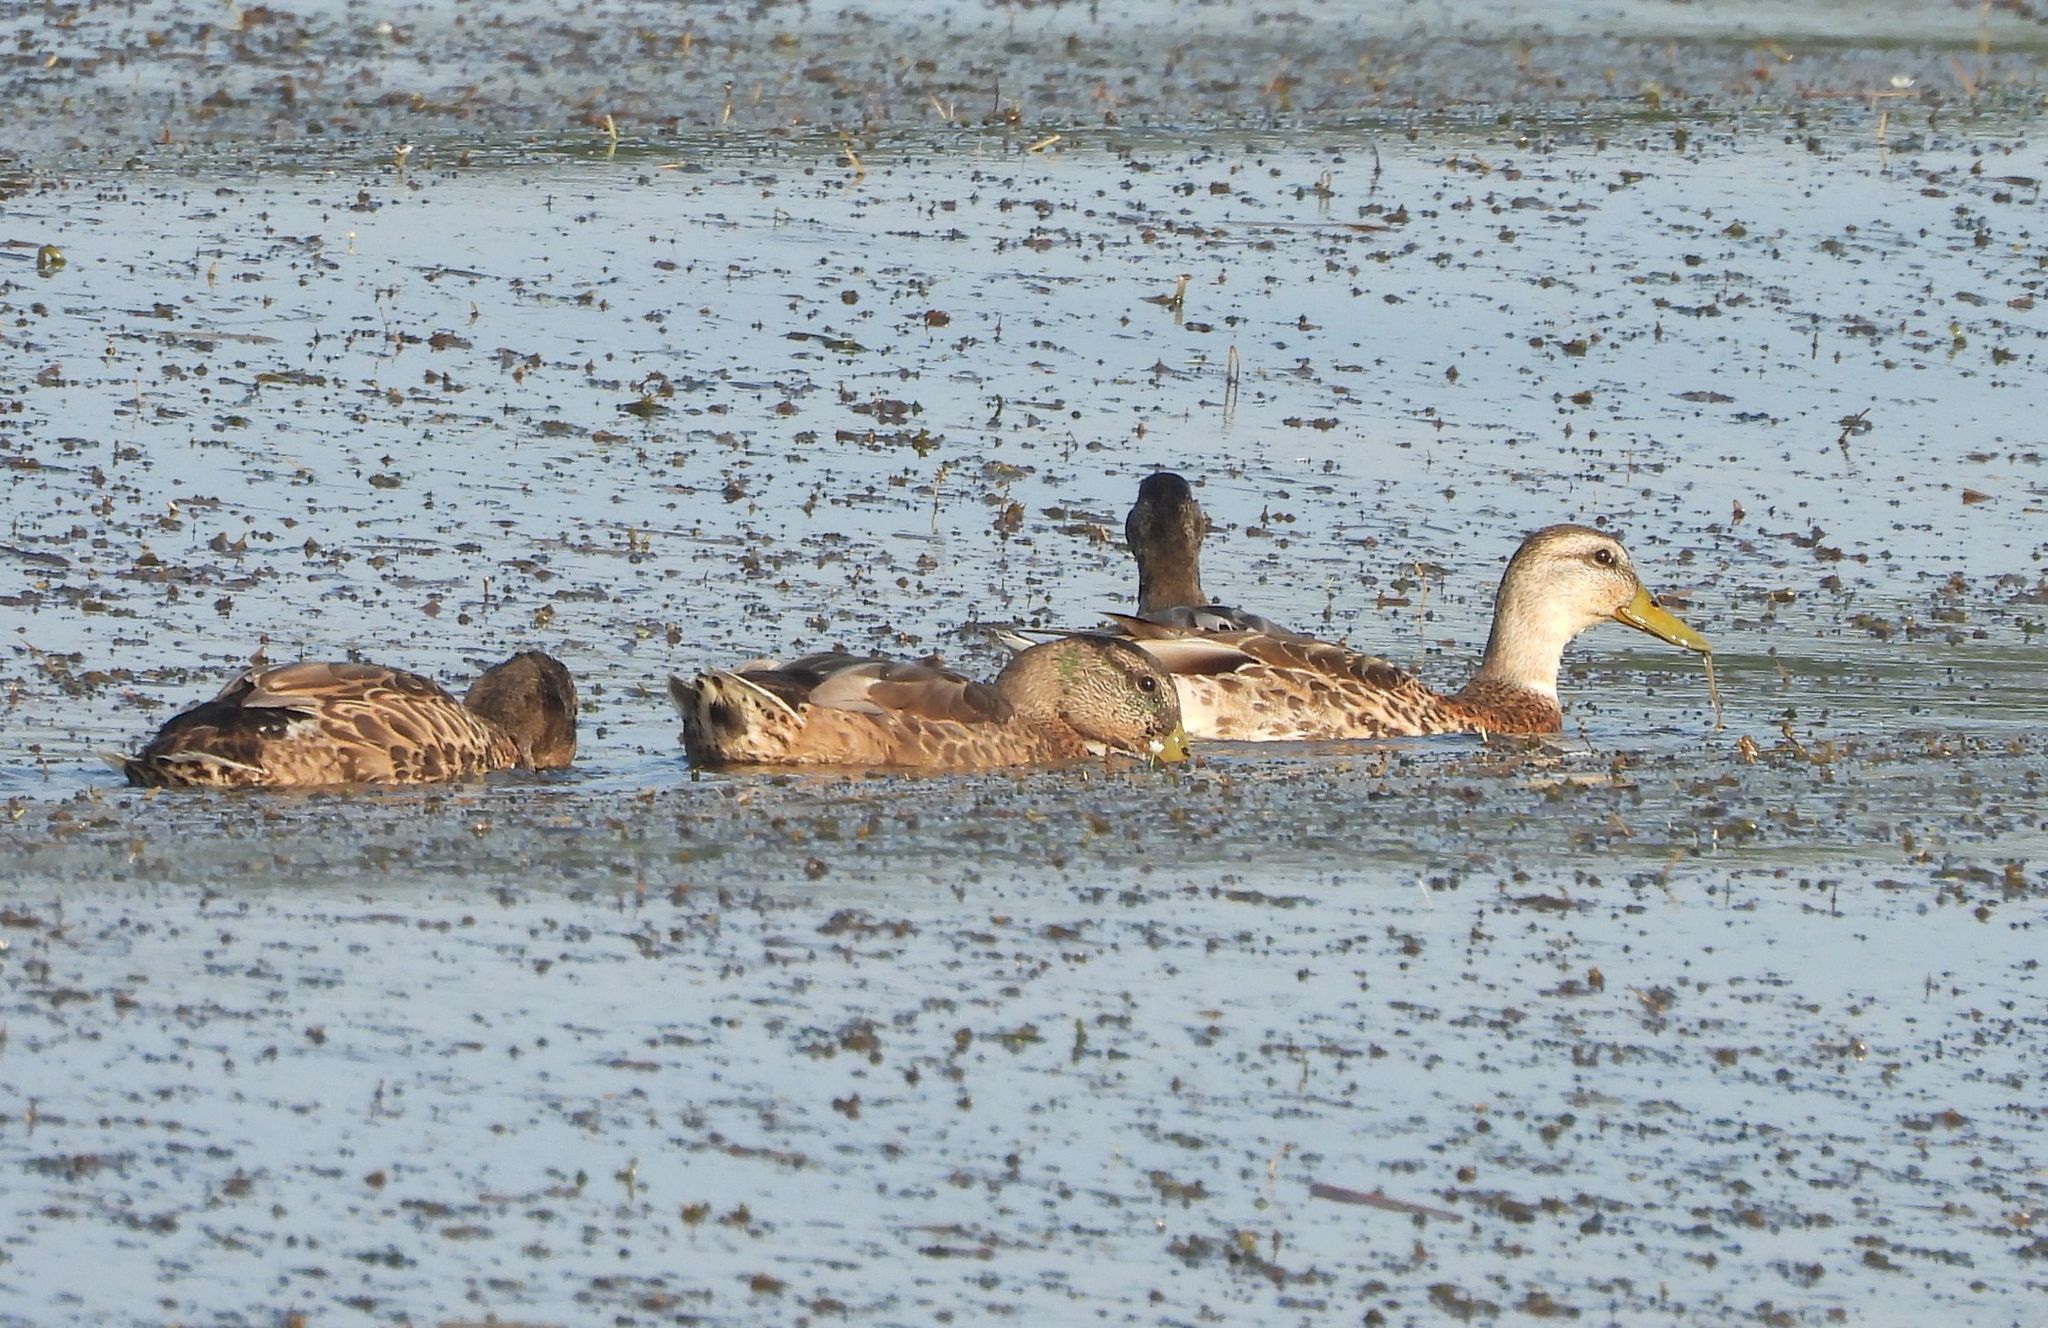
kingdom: Animalia
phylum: Chordata
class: Aves
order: Anseriformes
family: Anatidae
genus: Anas
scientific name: Anas platyrhynchos
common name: Mallard
